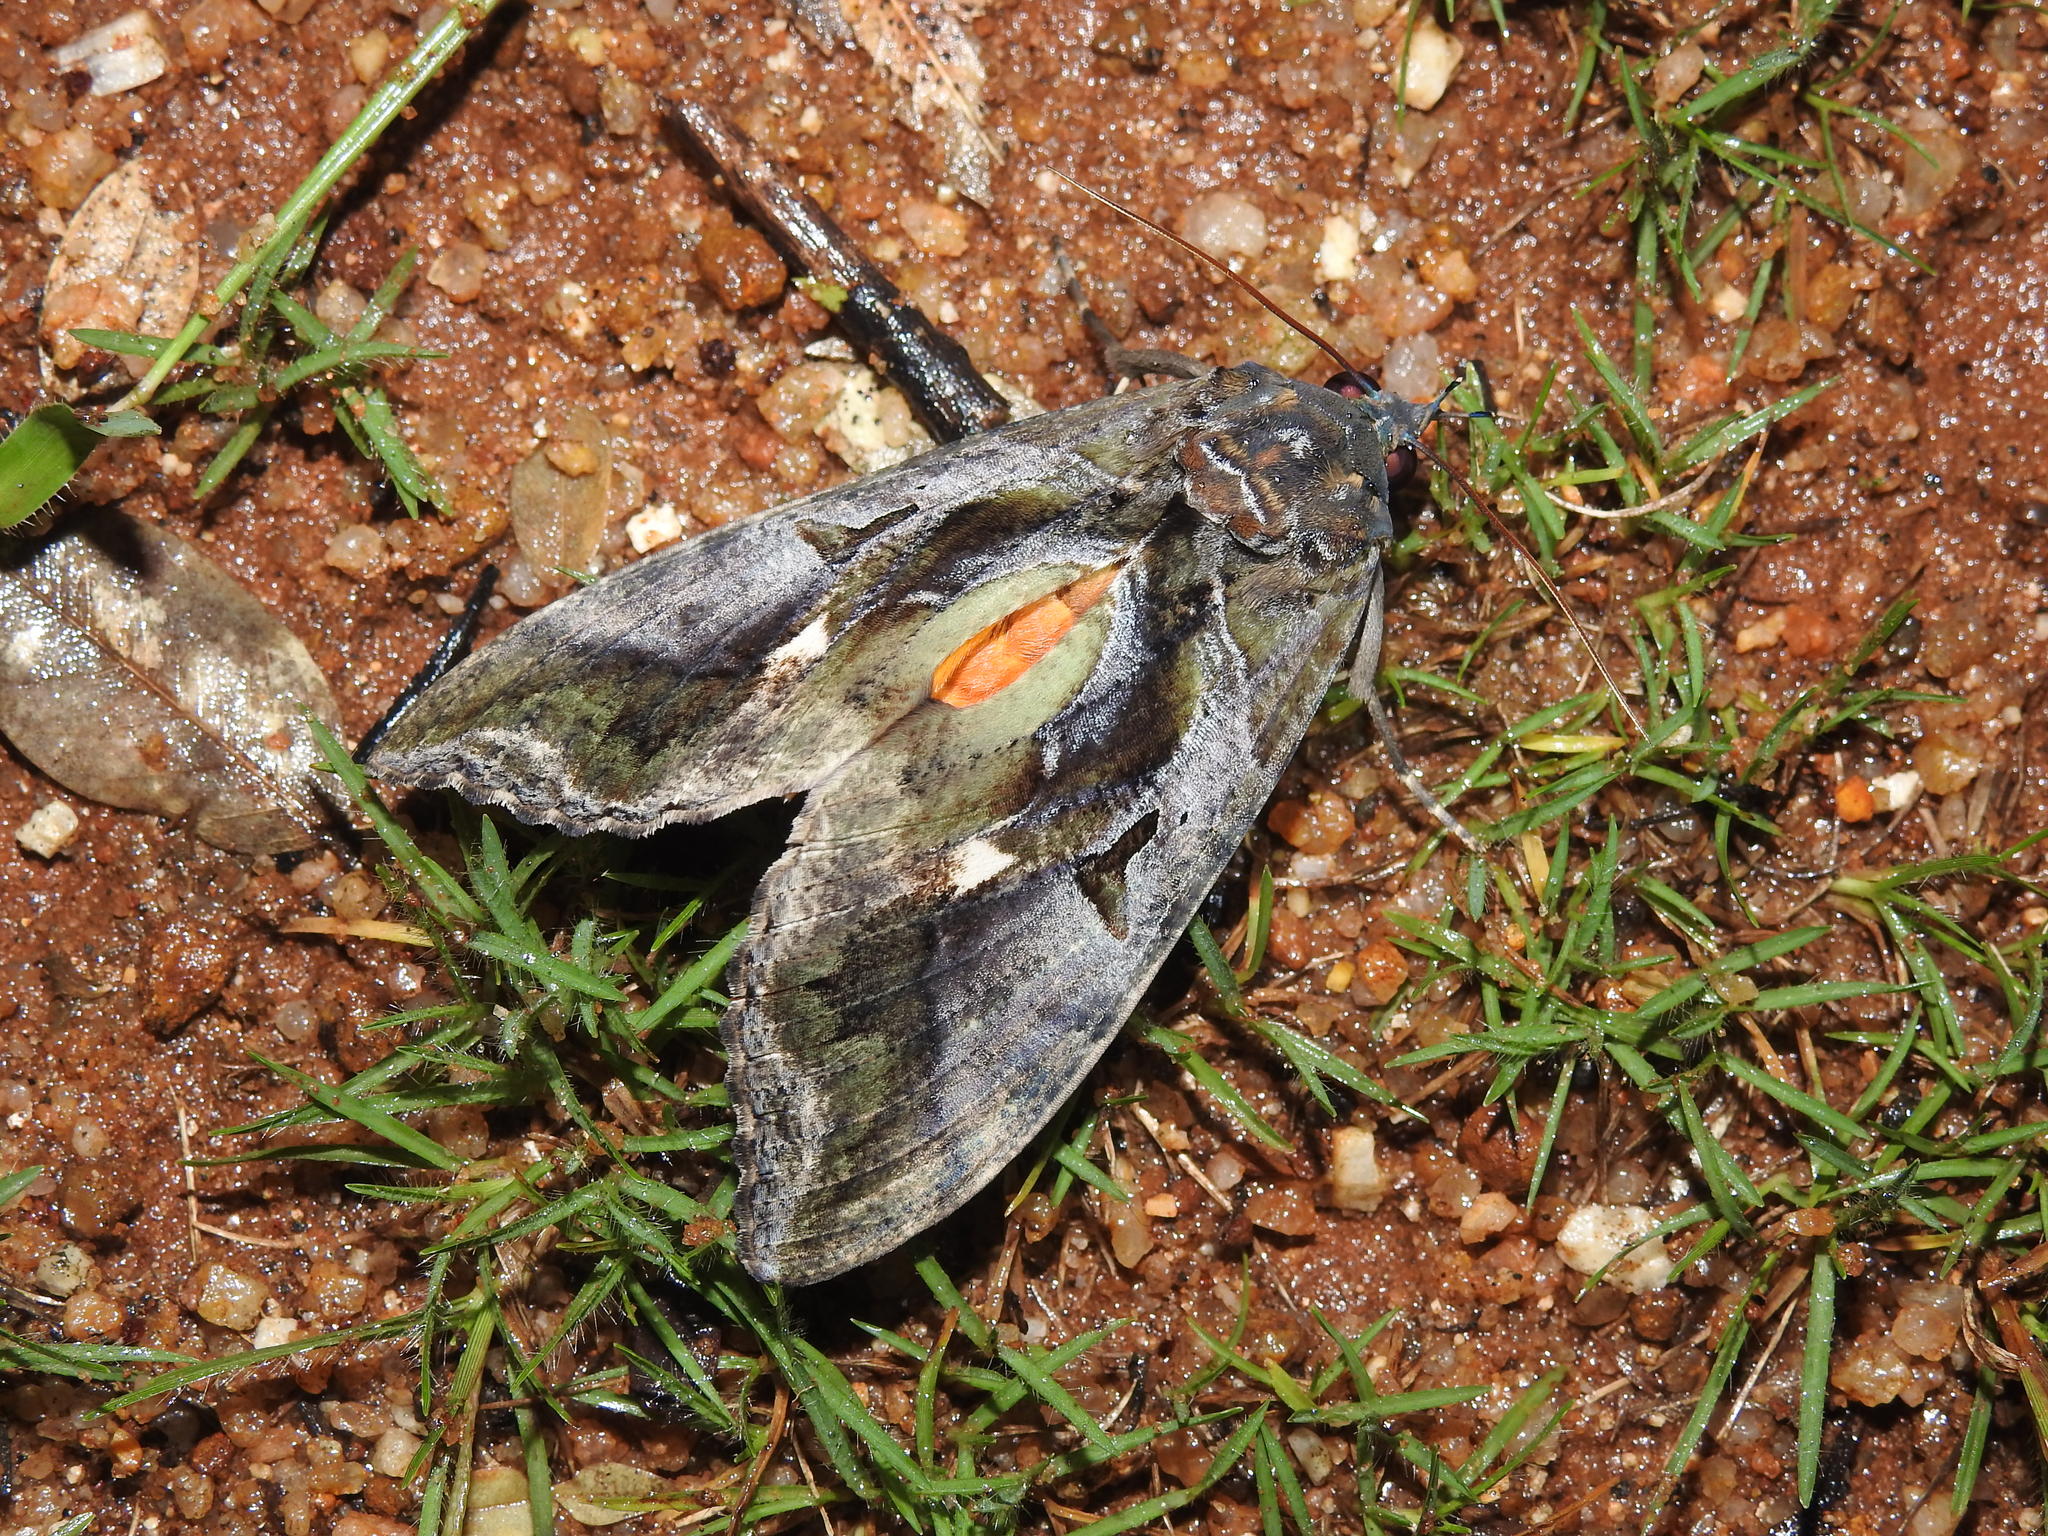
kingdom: Animalia
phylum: Arthropoda
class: Insecta
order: Lepidoptera
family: Erebidae
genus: Eudocima
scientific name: Eudocima phalonia
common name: Wasp
